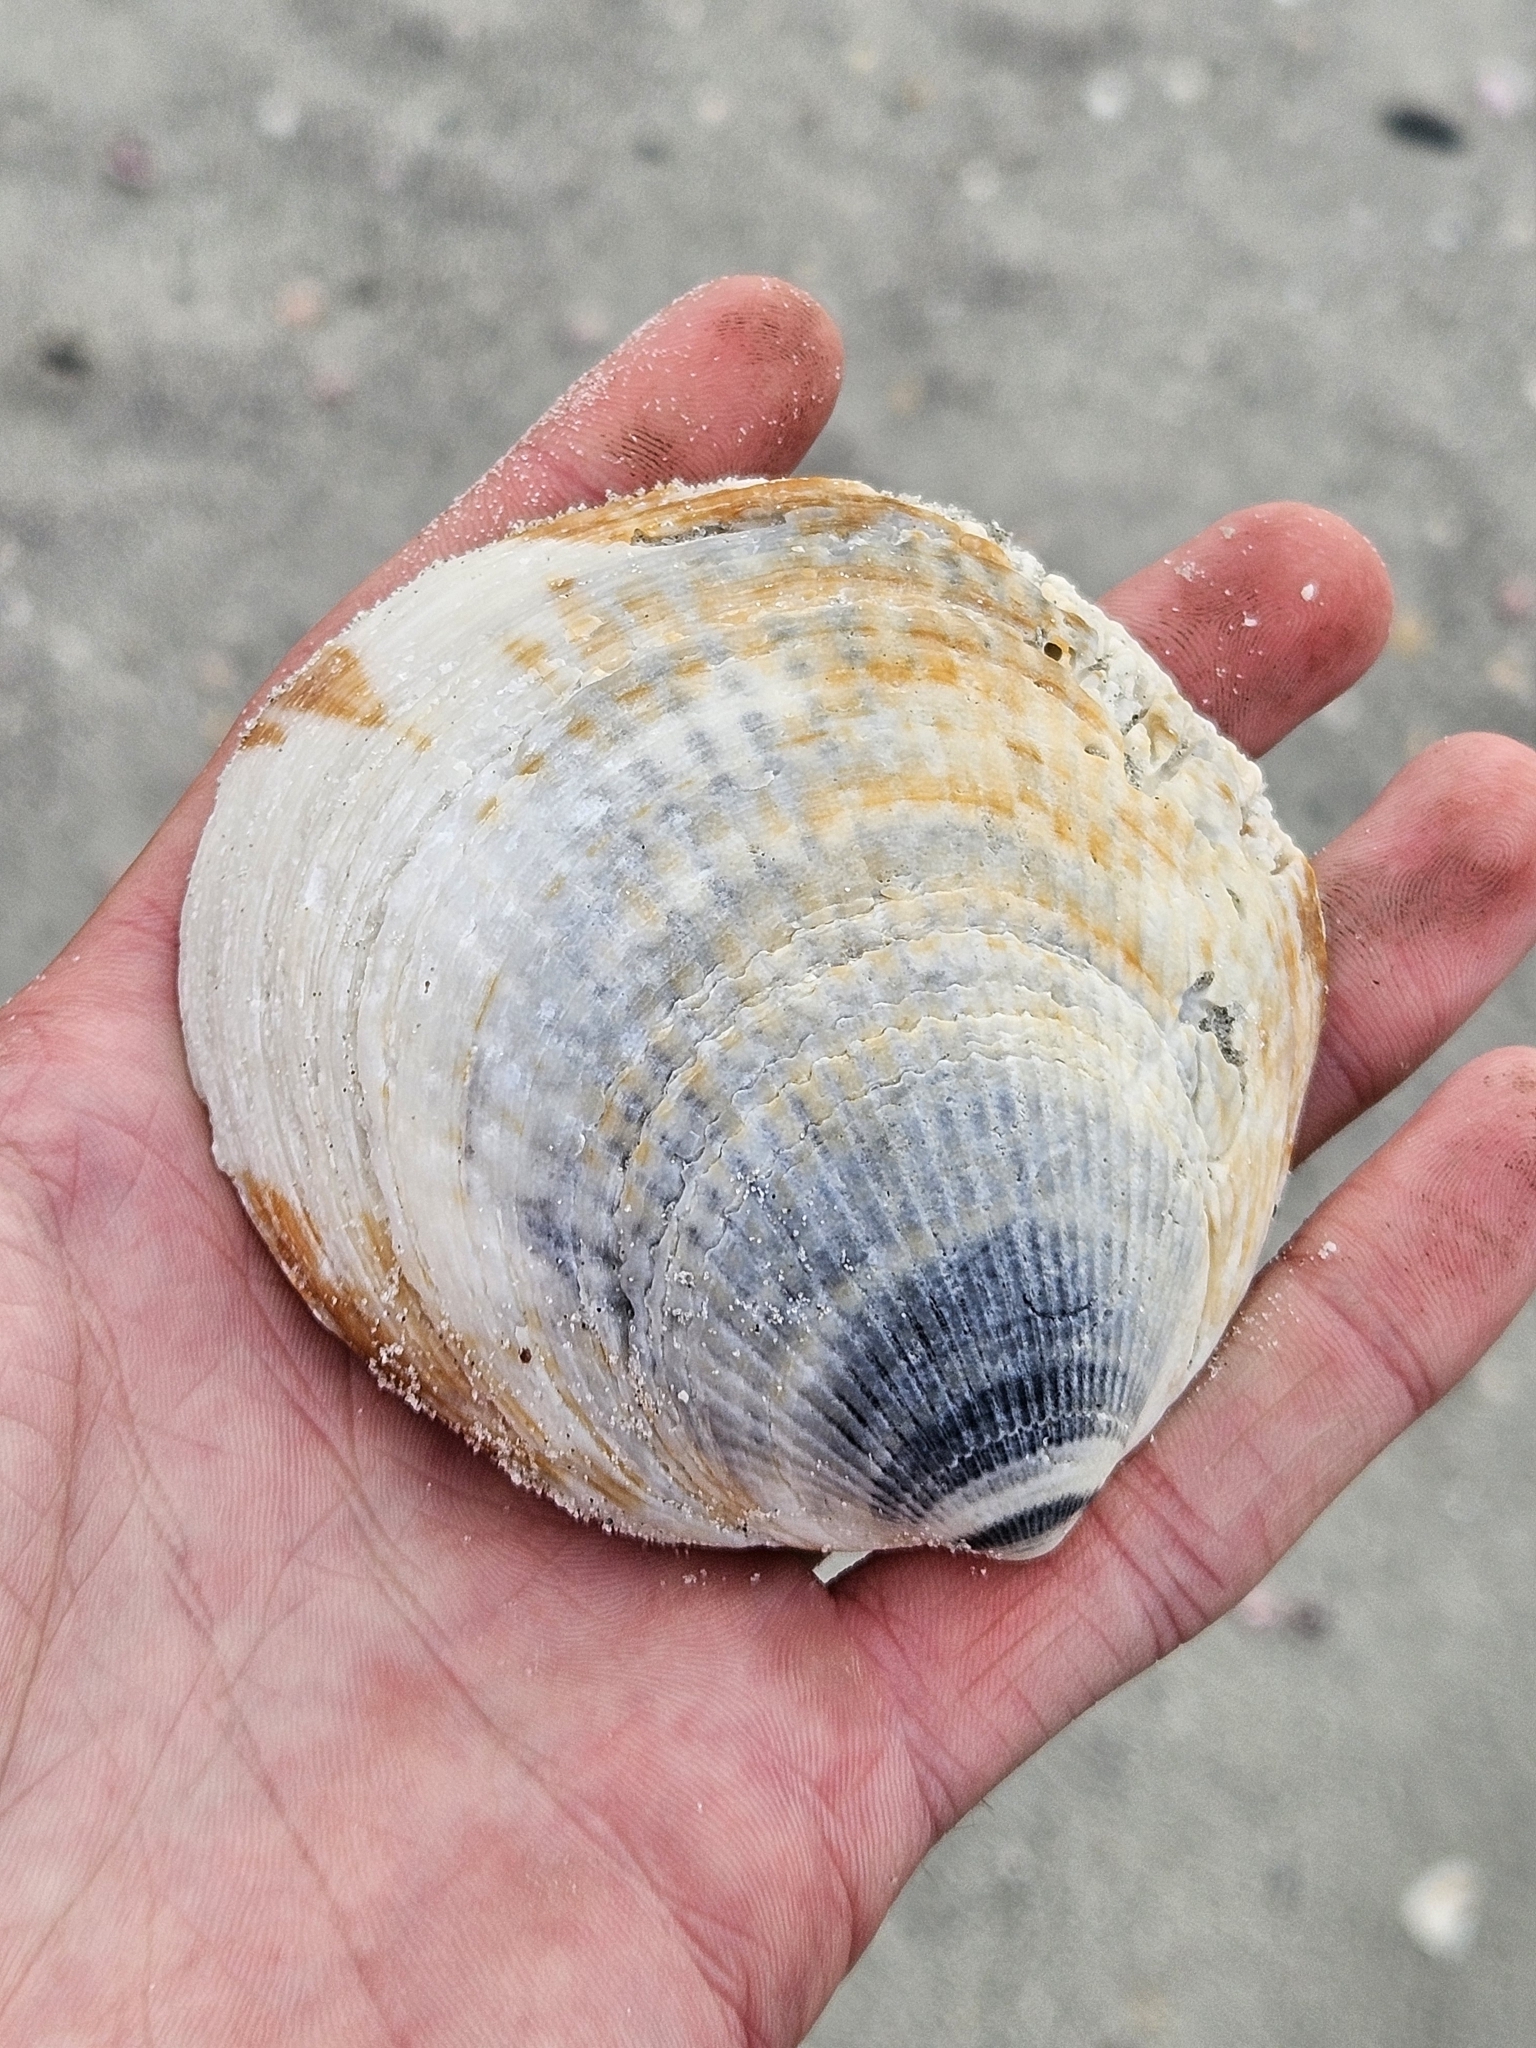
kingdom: Animalia
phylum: Mollusca
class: Bivalvia
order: Arcida
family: Glycymerididae
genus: Tucetona
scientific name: Tucetona laticostata
